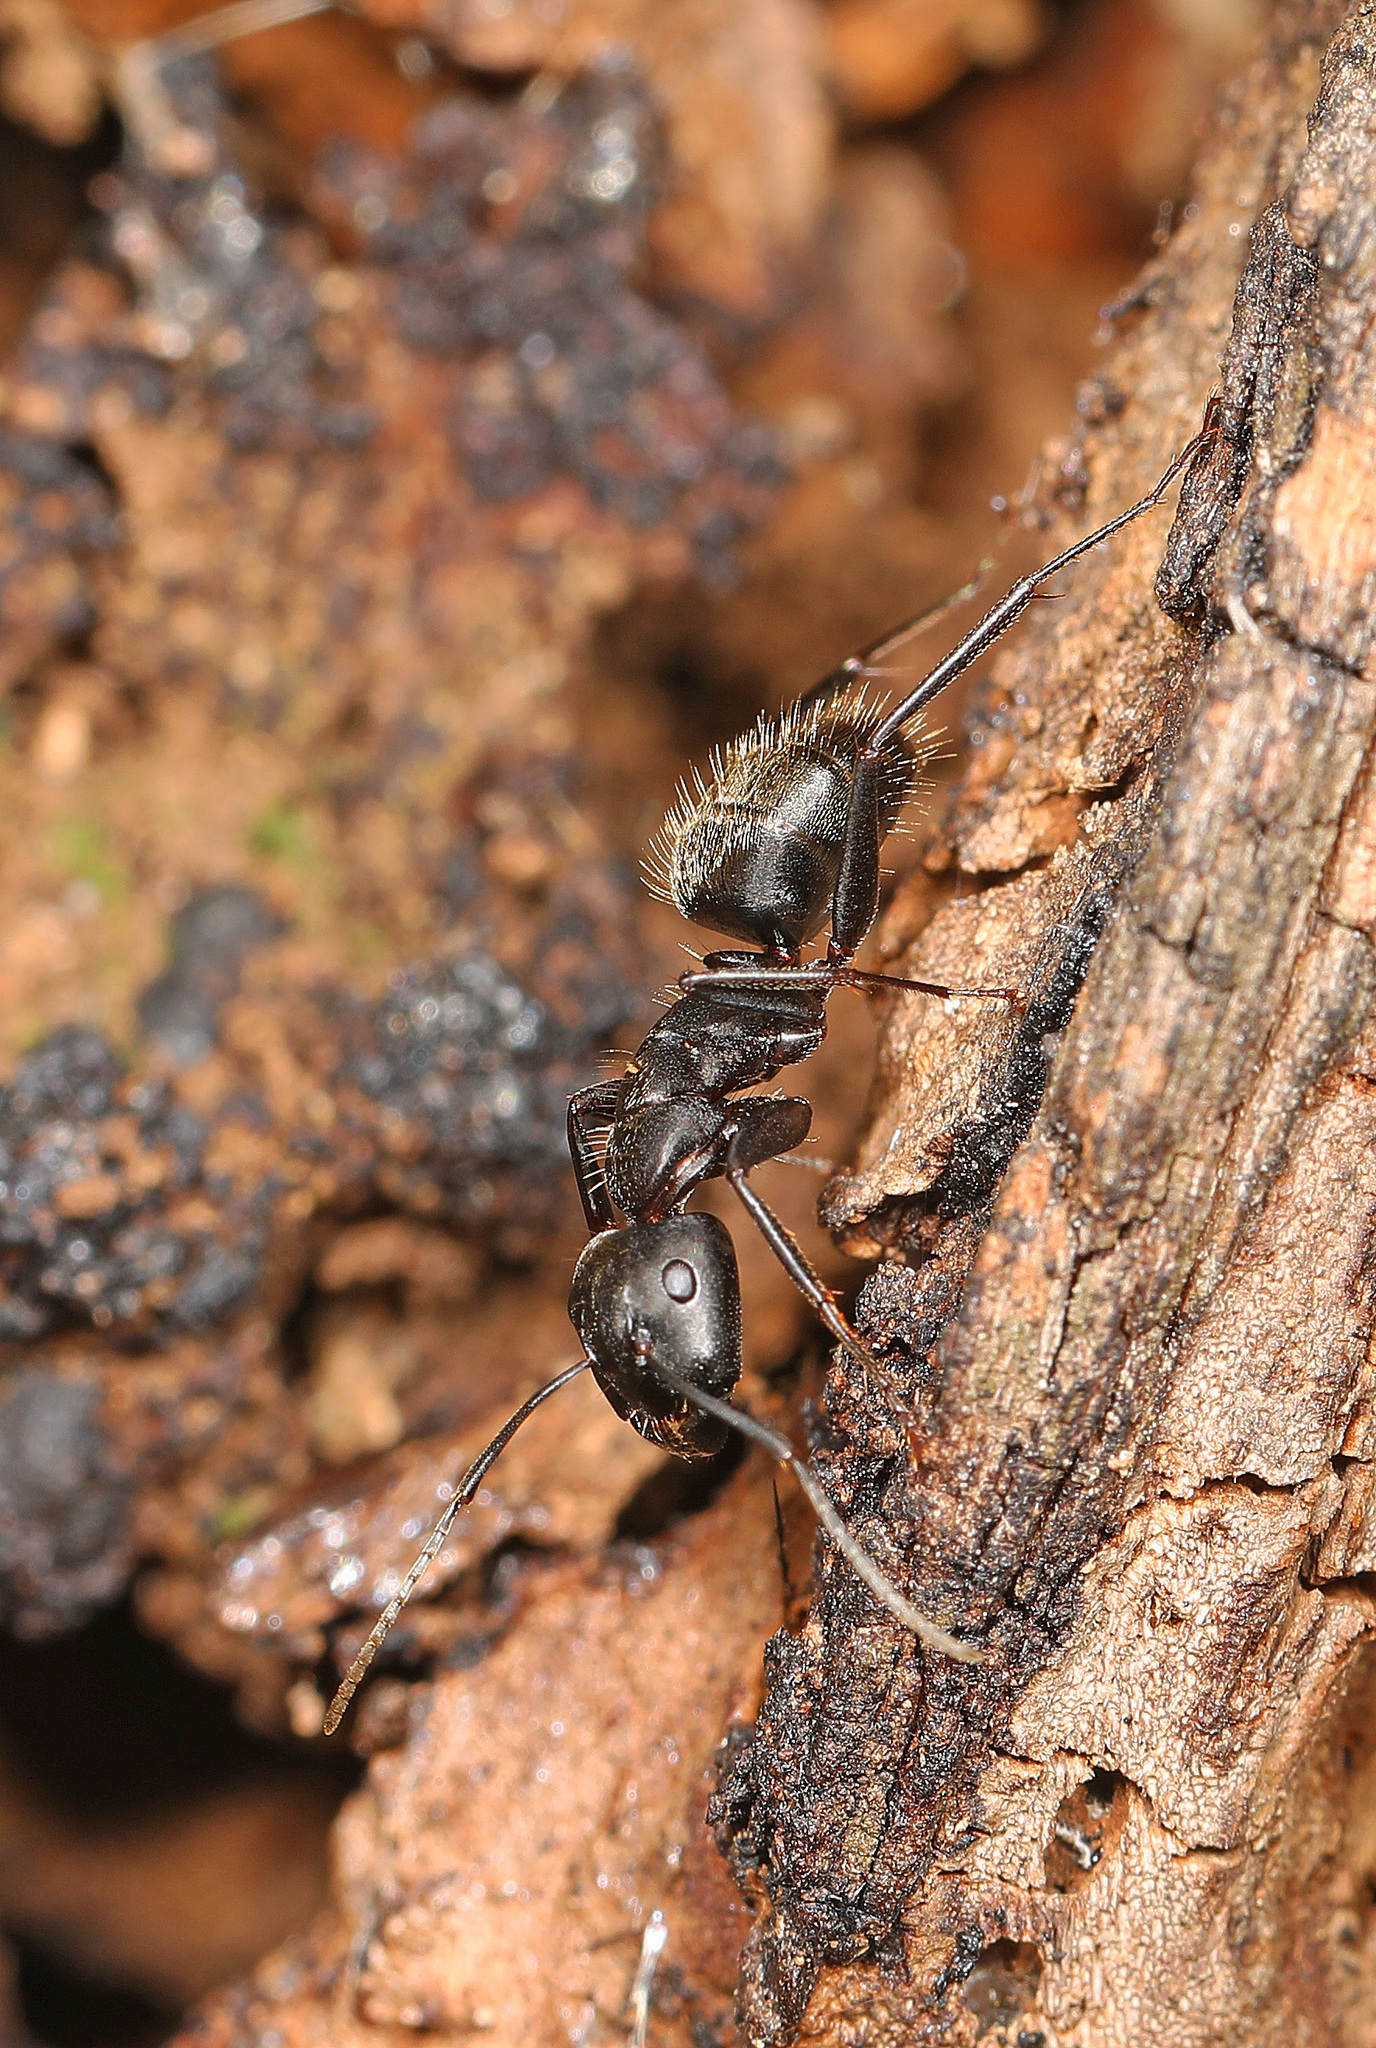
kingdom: Animalia
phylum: Arthropoda
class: Insecta
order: Hymenoptera
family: Formicidae
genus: Camponotus
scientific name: Camponotus pennsylvanicus
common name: Black carpenter ant
